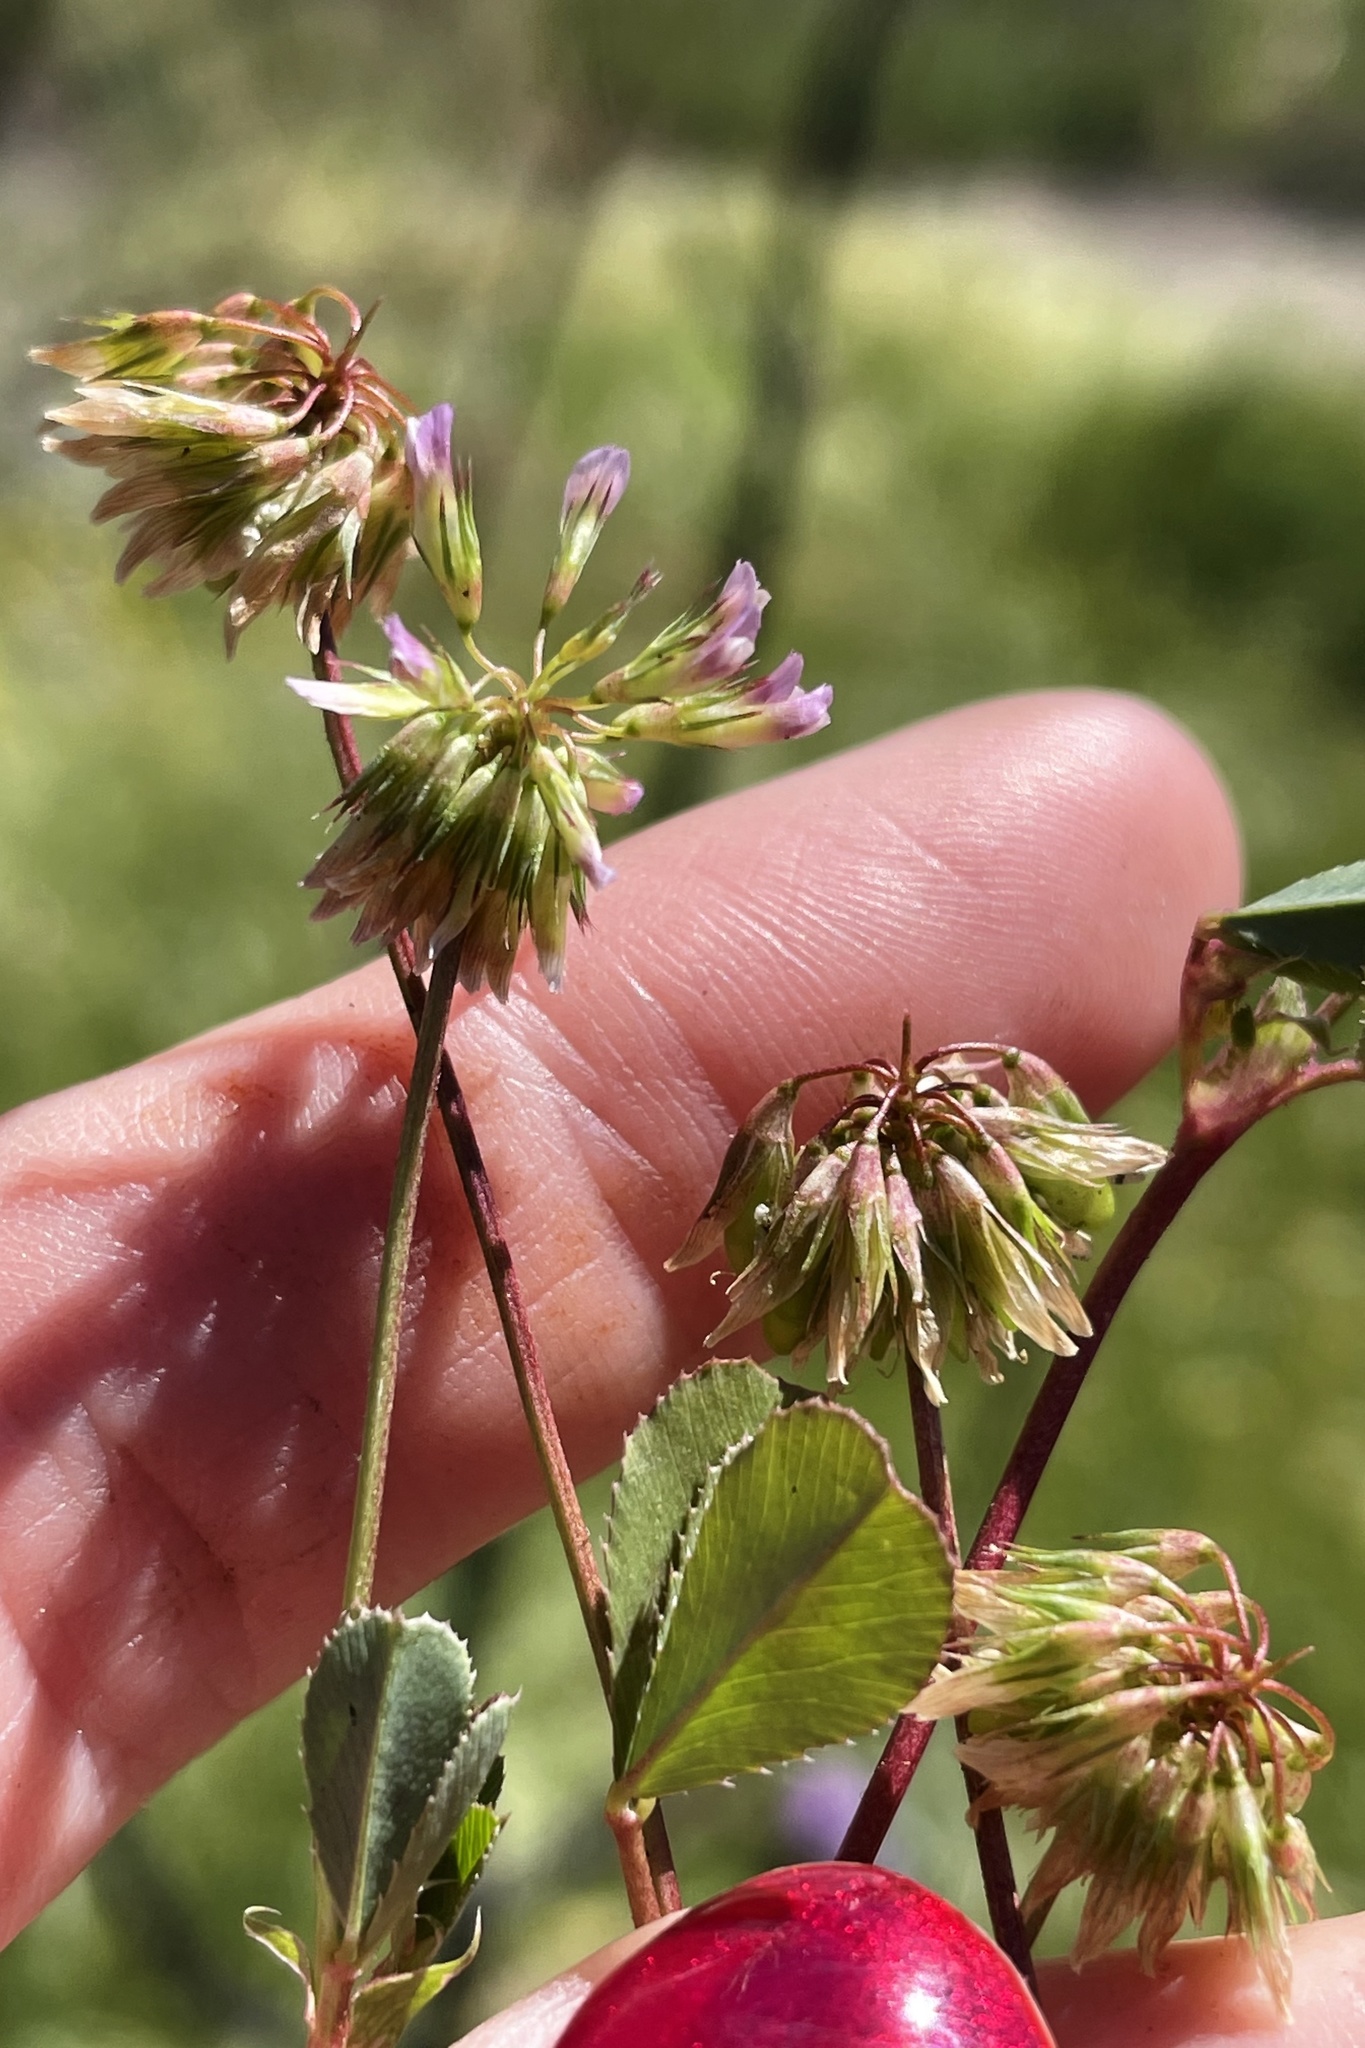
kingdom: Plantae
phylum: Tracheophyta
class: Magnoliopsida
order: Fabales
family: Fabaceae
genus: Trifolium
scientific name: Trifolium gracilentum
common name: Slender clover
